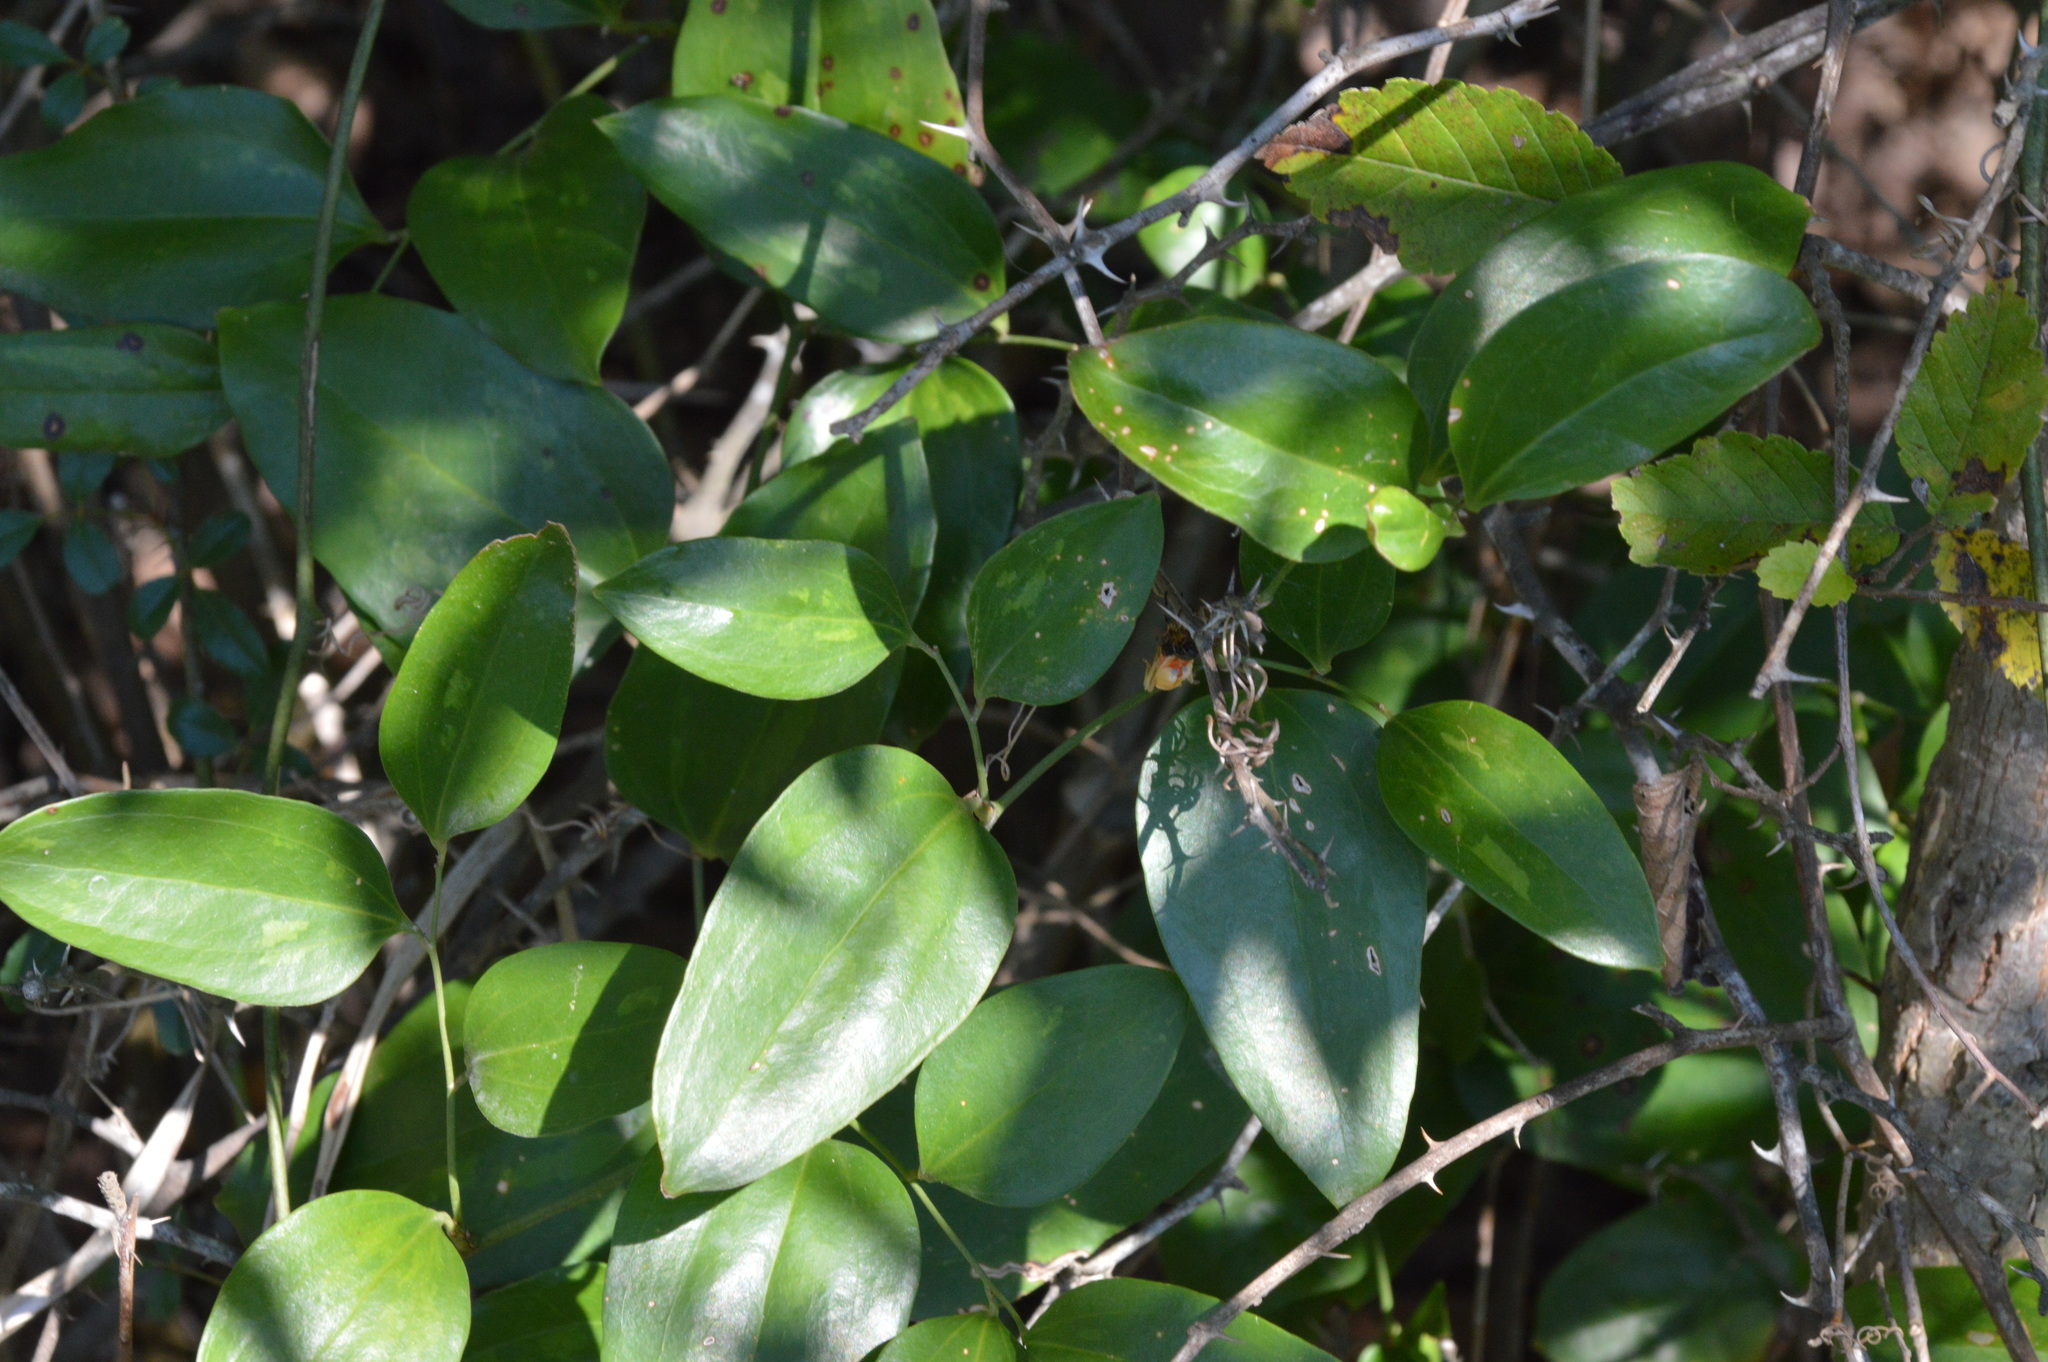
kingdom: Plantae
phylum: Tracheophyta
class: Liliopsida
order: Liliales
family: Smilacaceae
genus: Smilax
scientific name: Smilax maritima
